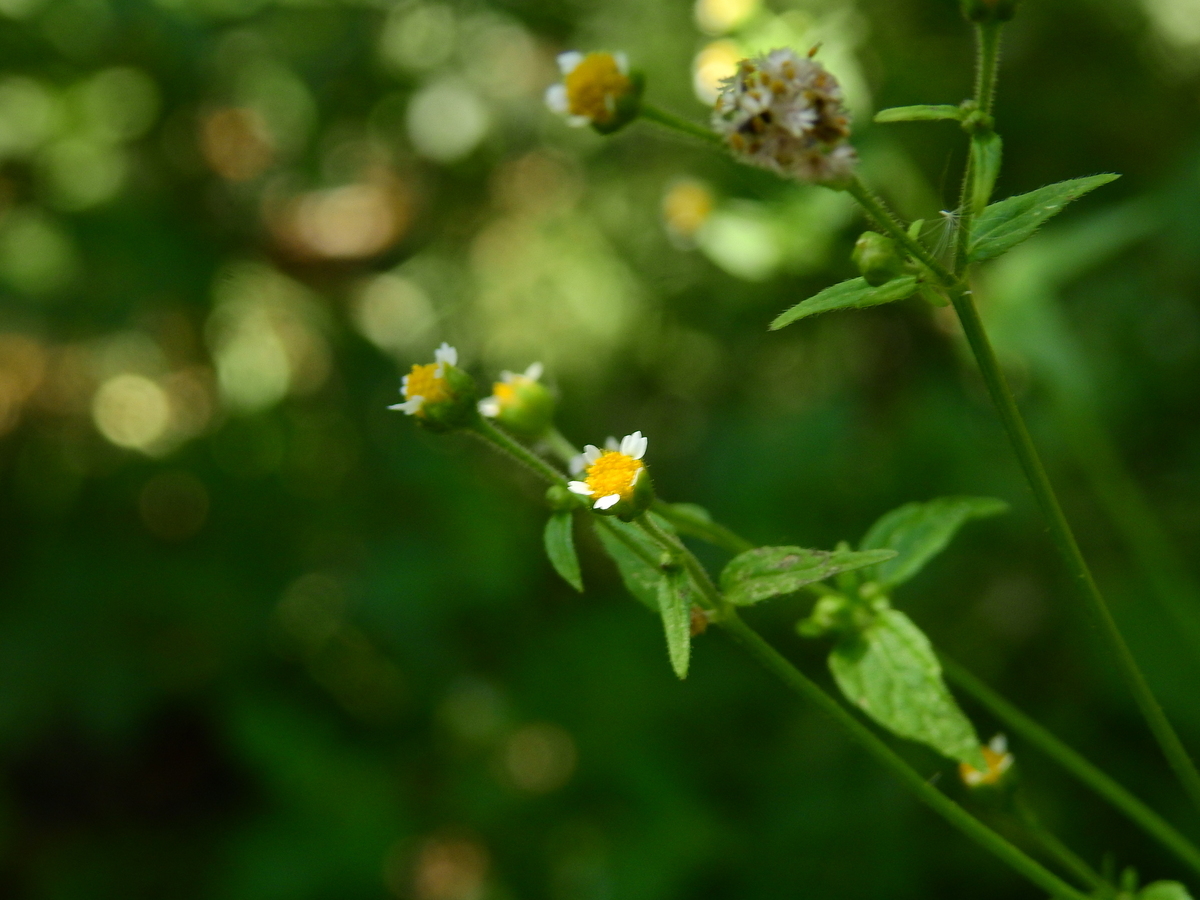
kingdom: Plantae
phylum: Tracheophyta
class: Magnoliopsida
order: Asterales
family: Asteraceae
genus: Galinsoga
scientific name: Galinsoga parviflora
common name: Gallant soldier
